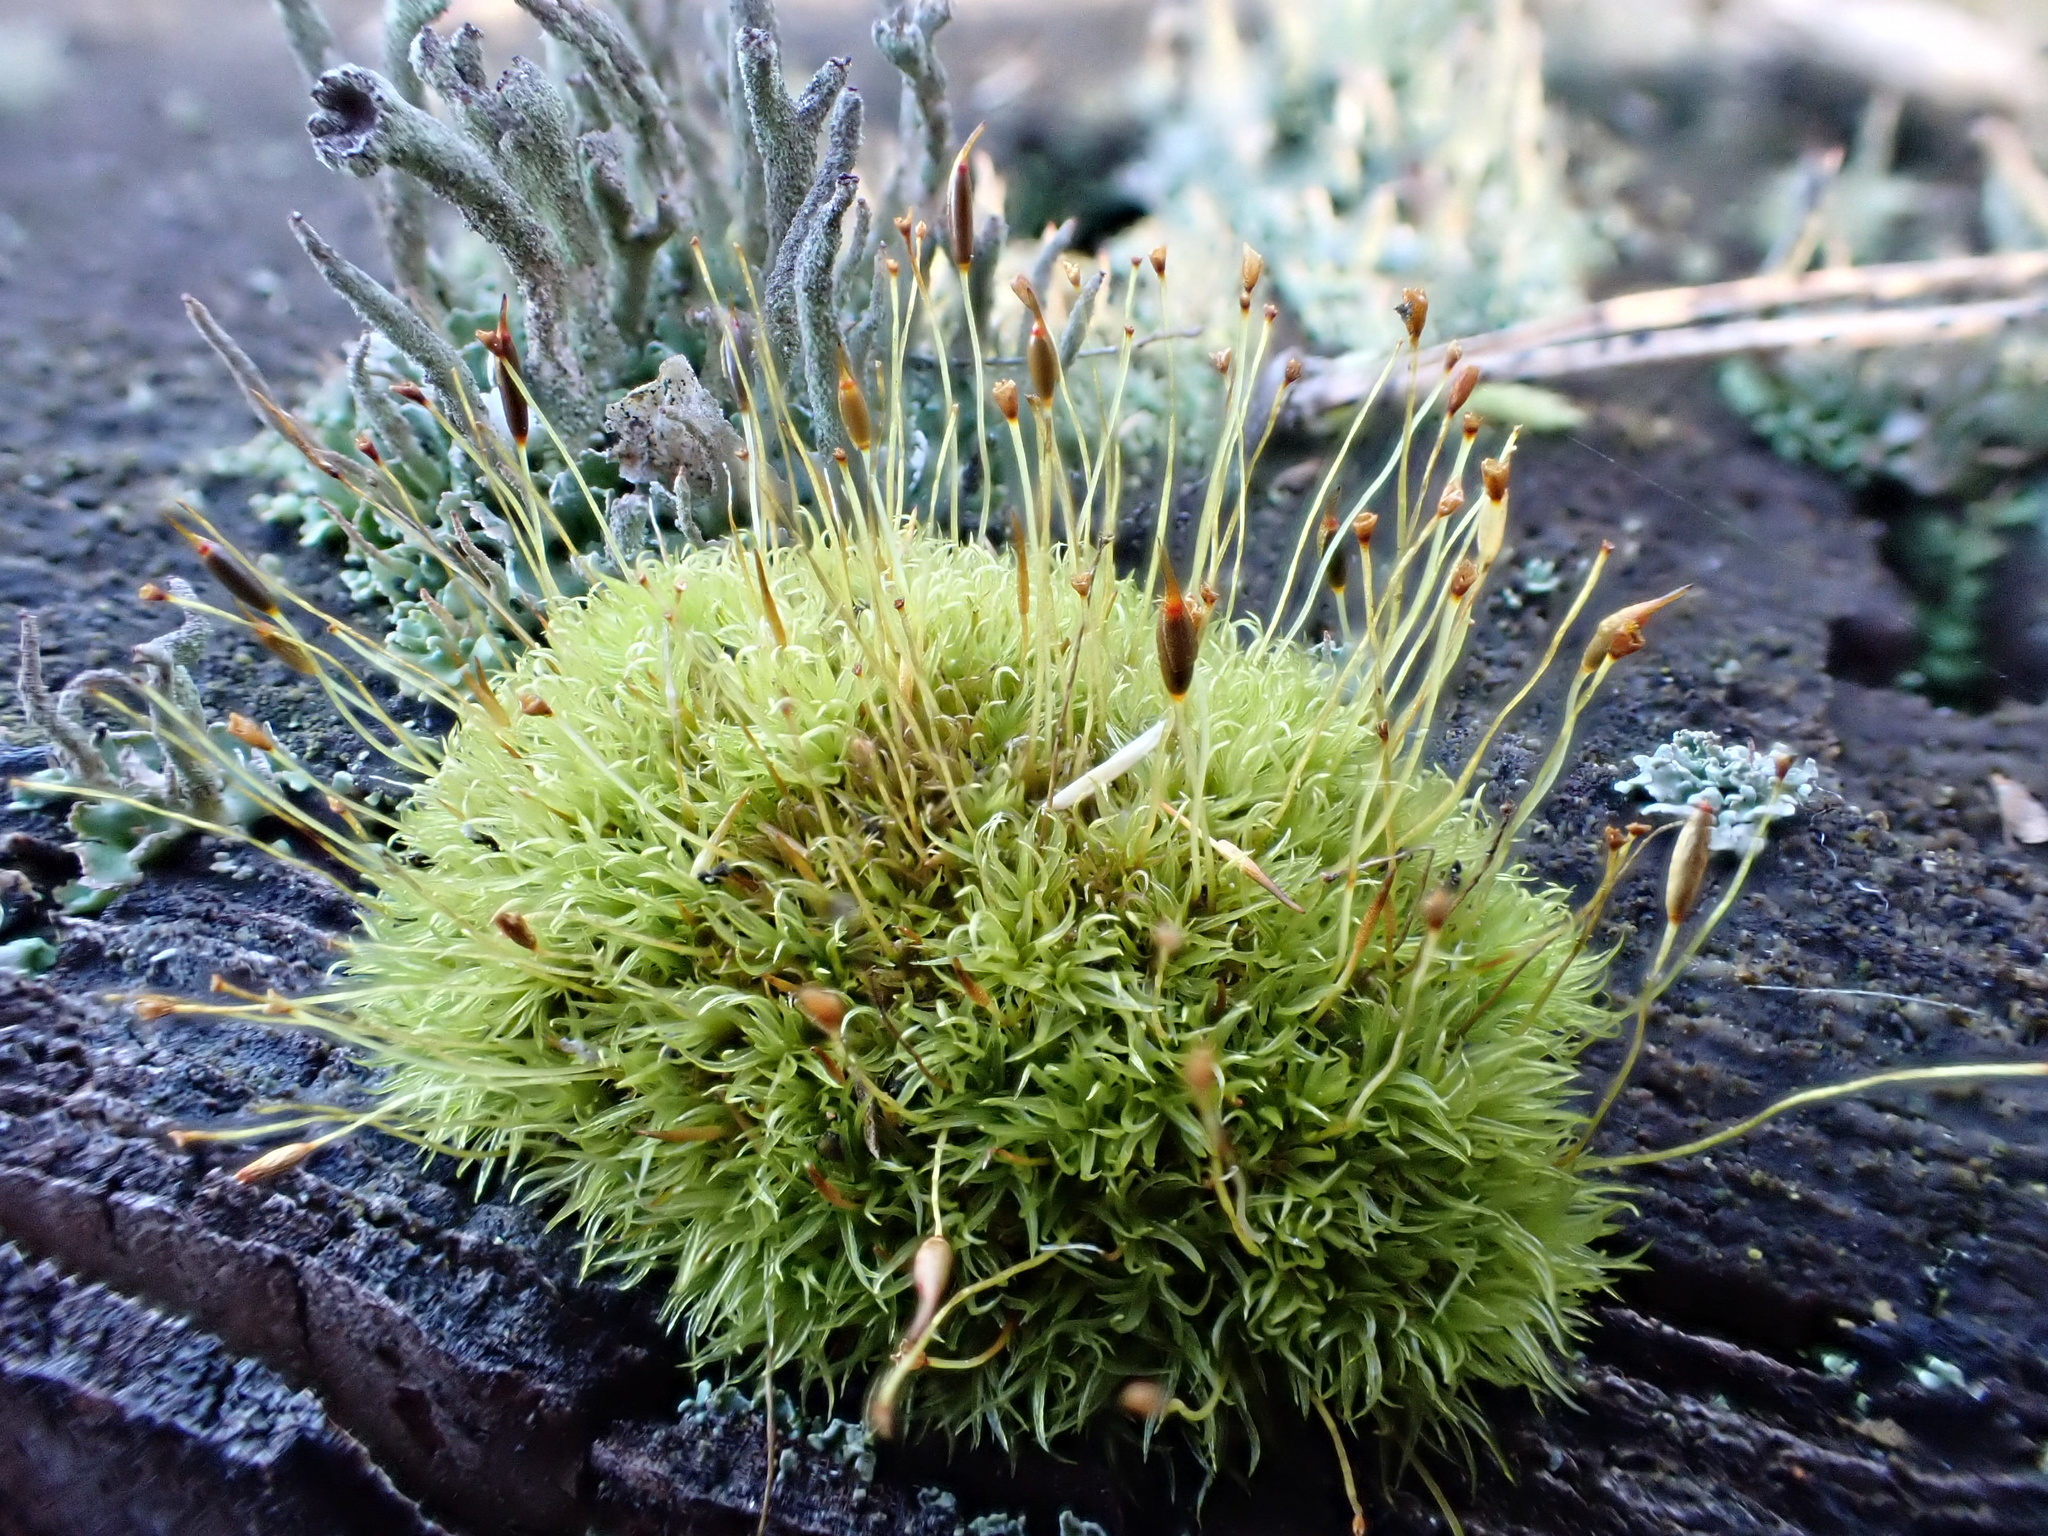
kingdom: Plantae
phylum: Bryophyta
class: Bryopsida
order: Dicranales
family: Rhabdoweisiaceae
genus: Dicranoweisia
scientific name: Dicranoweisia cirrata
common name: Common pincushion
